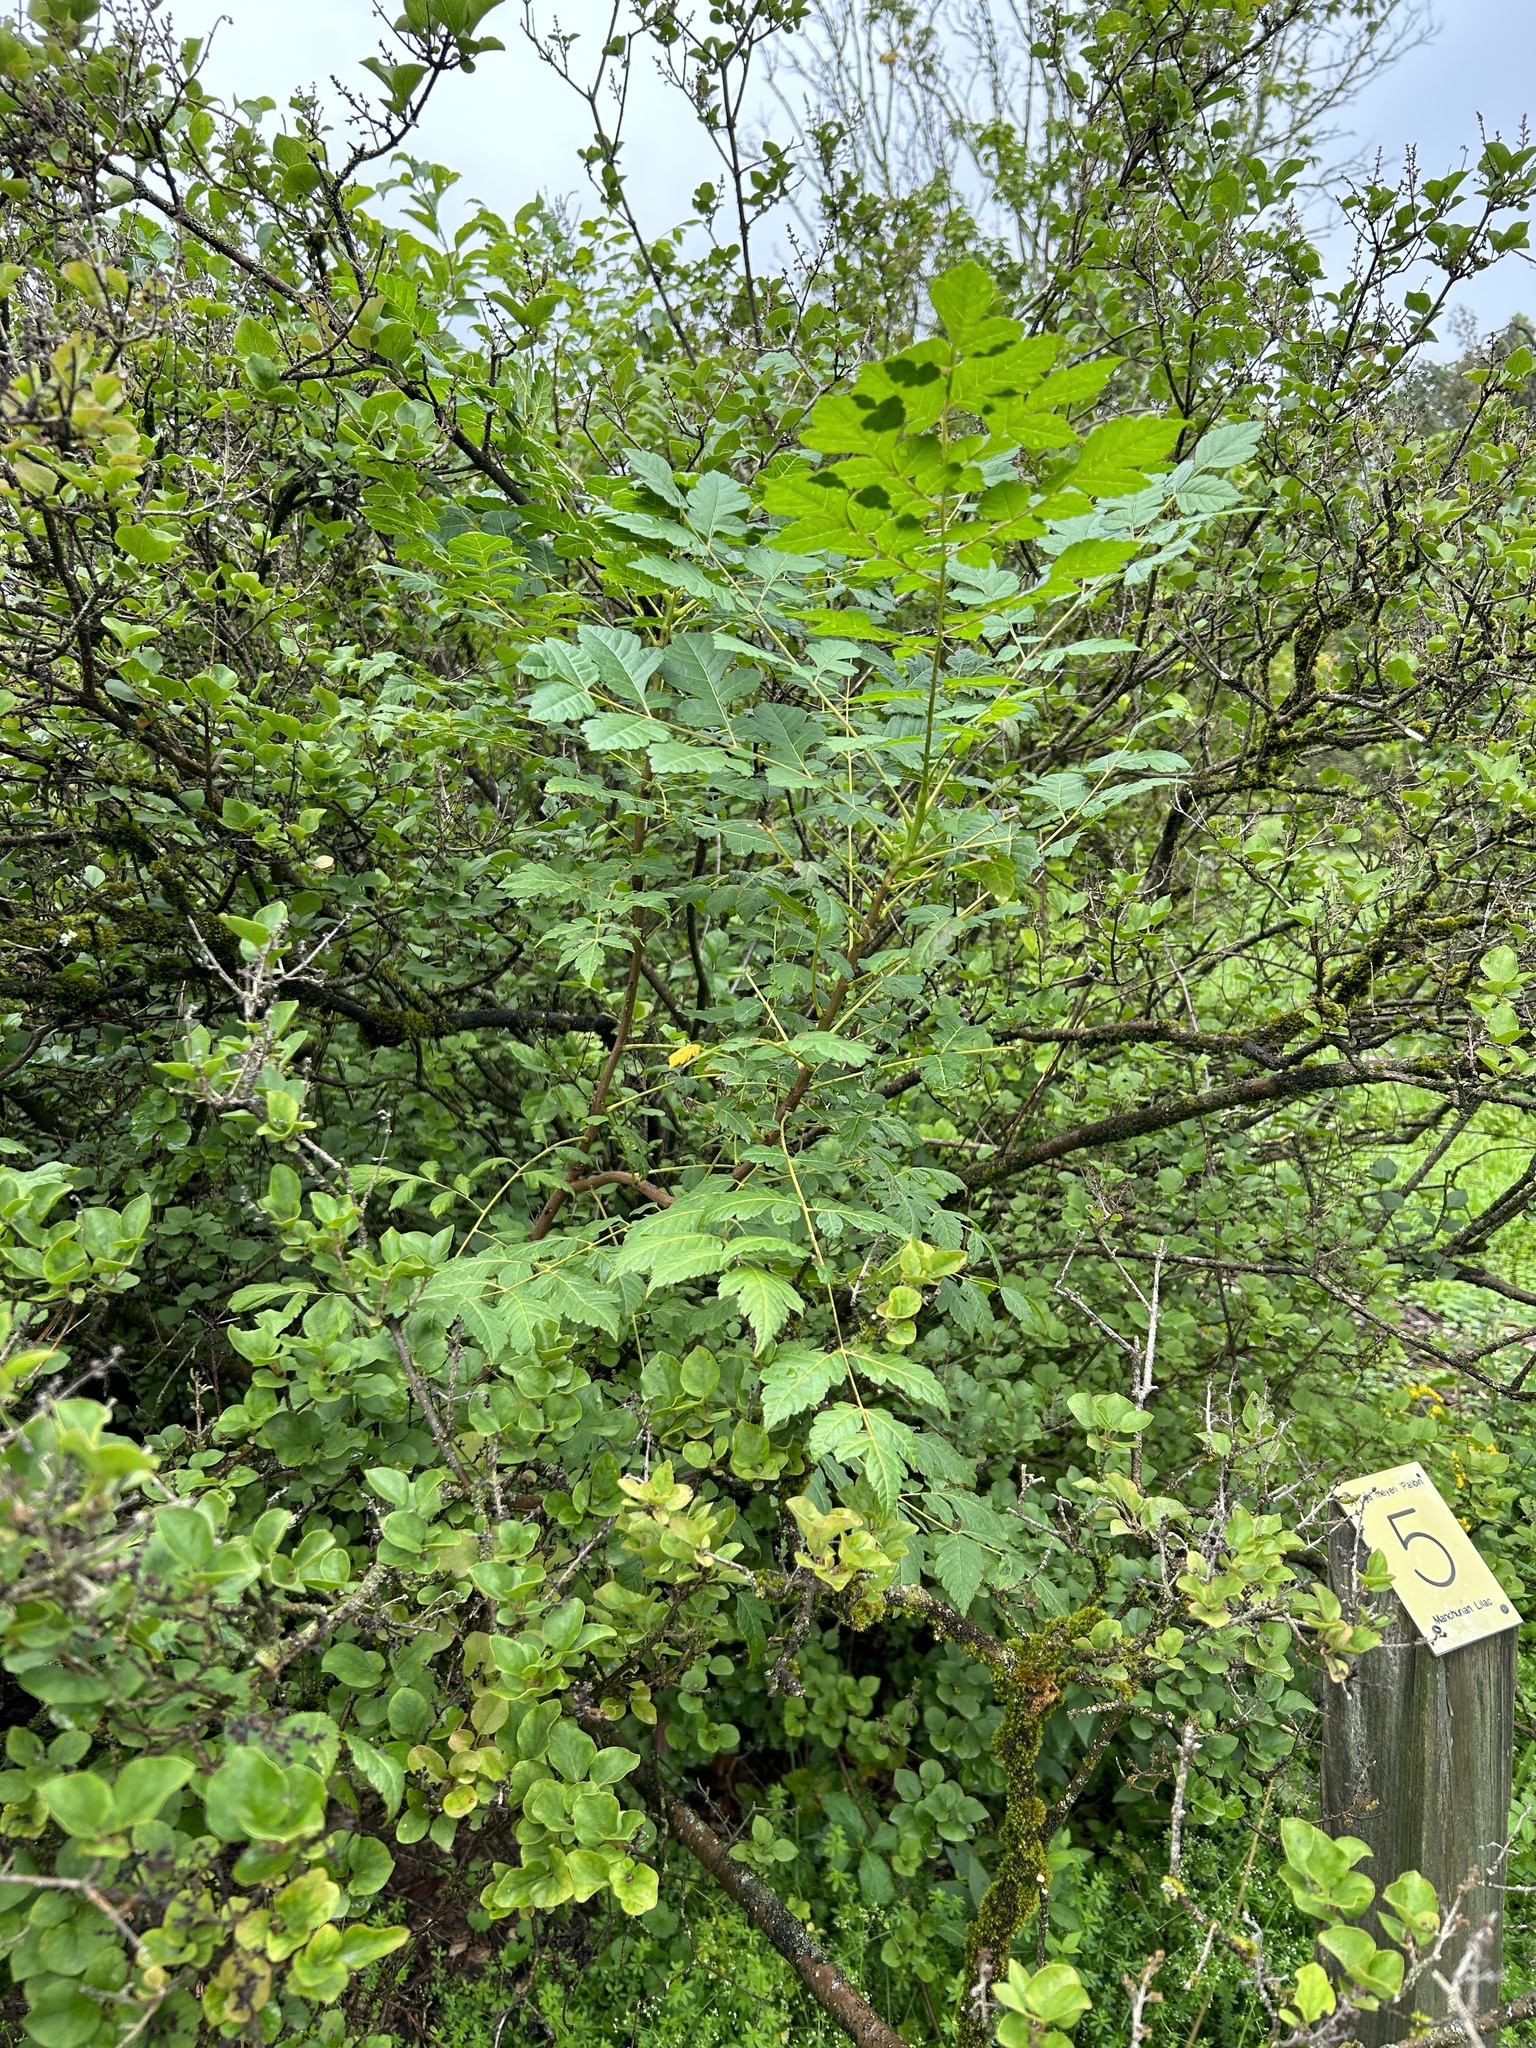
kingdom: Plantae
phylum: Tracheophyta
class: Magnoliopsida
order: Sapindales
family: Sapindaceae
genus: Koelreuteria
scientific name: Koelreuteria paniculata
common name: Pride-of-india
